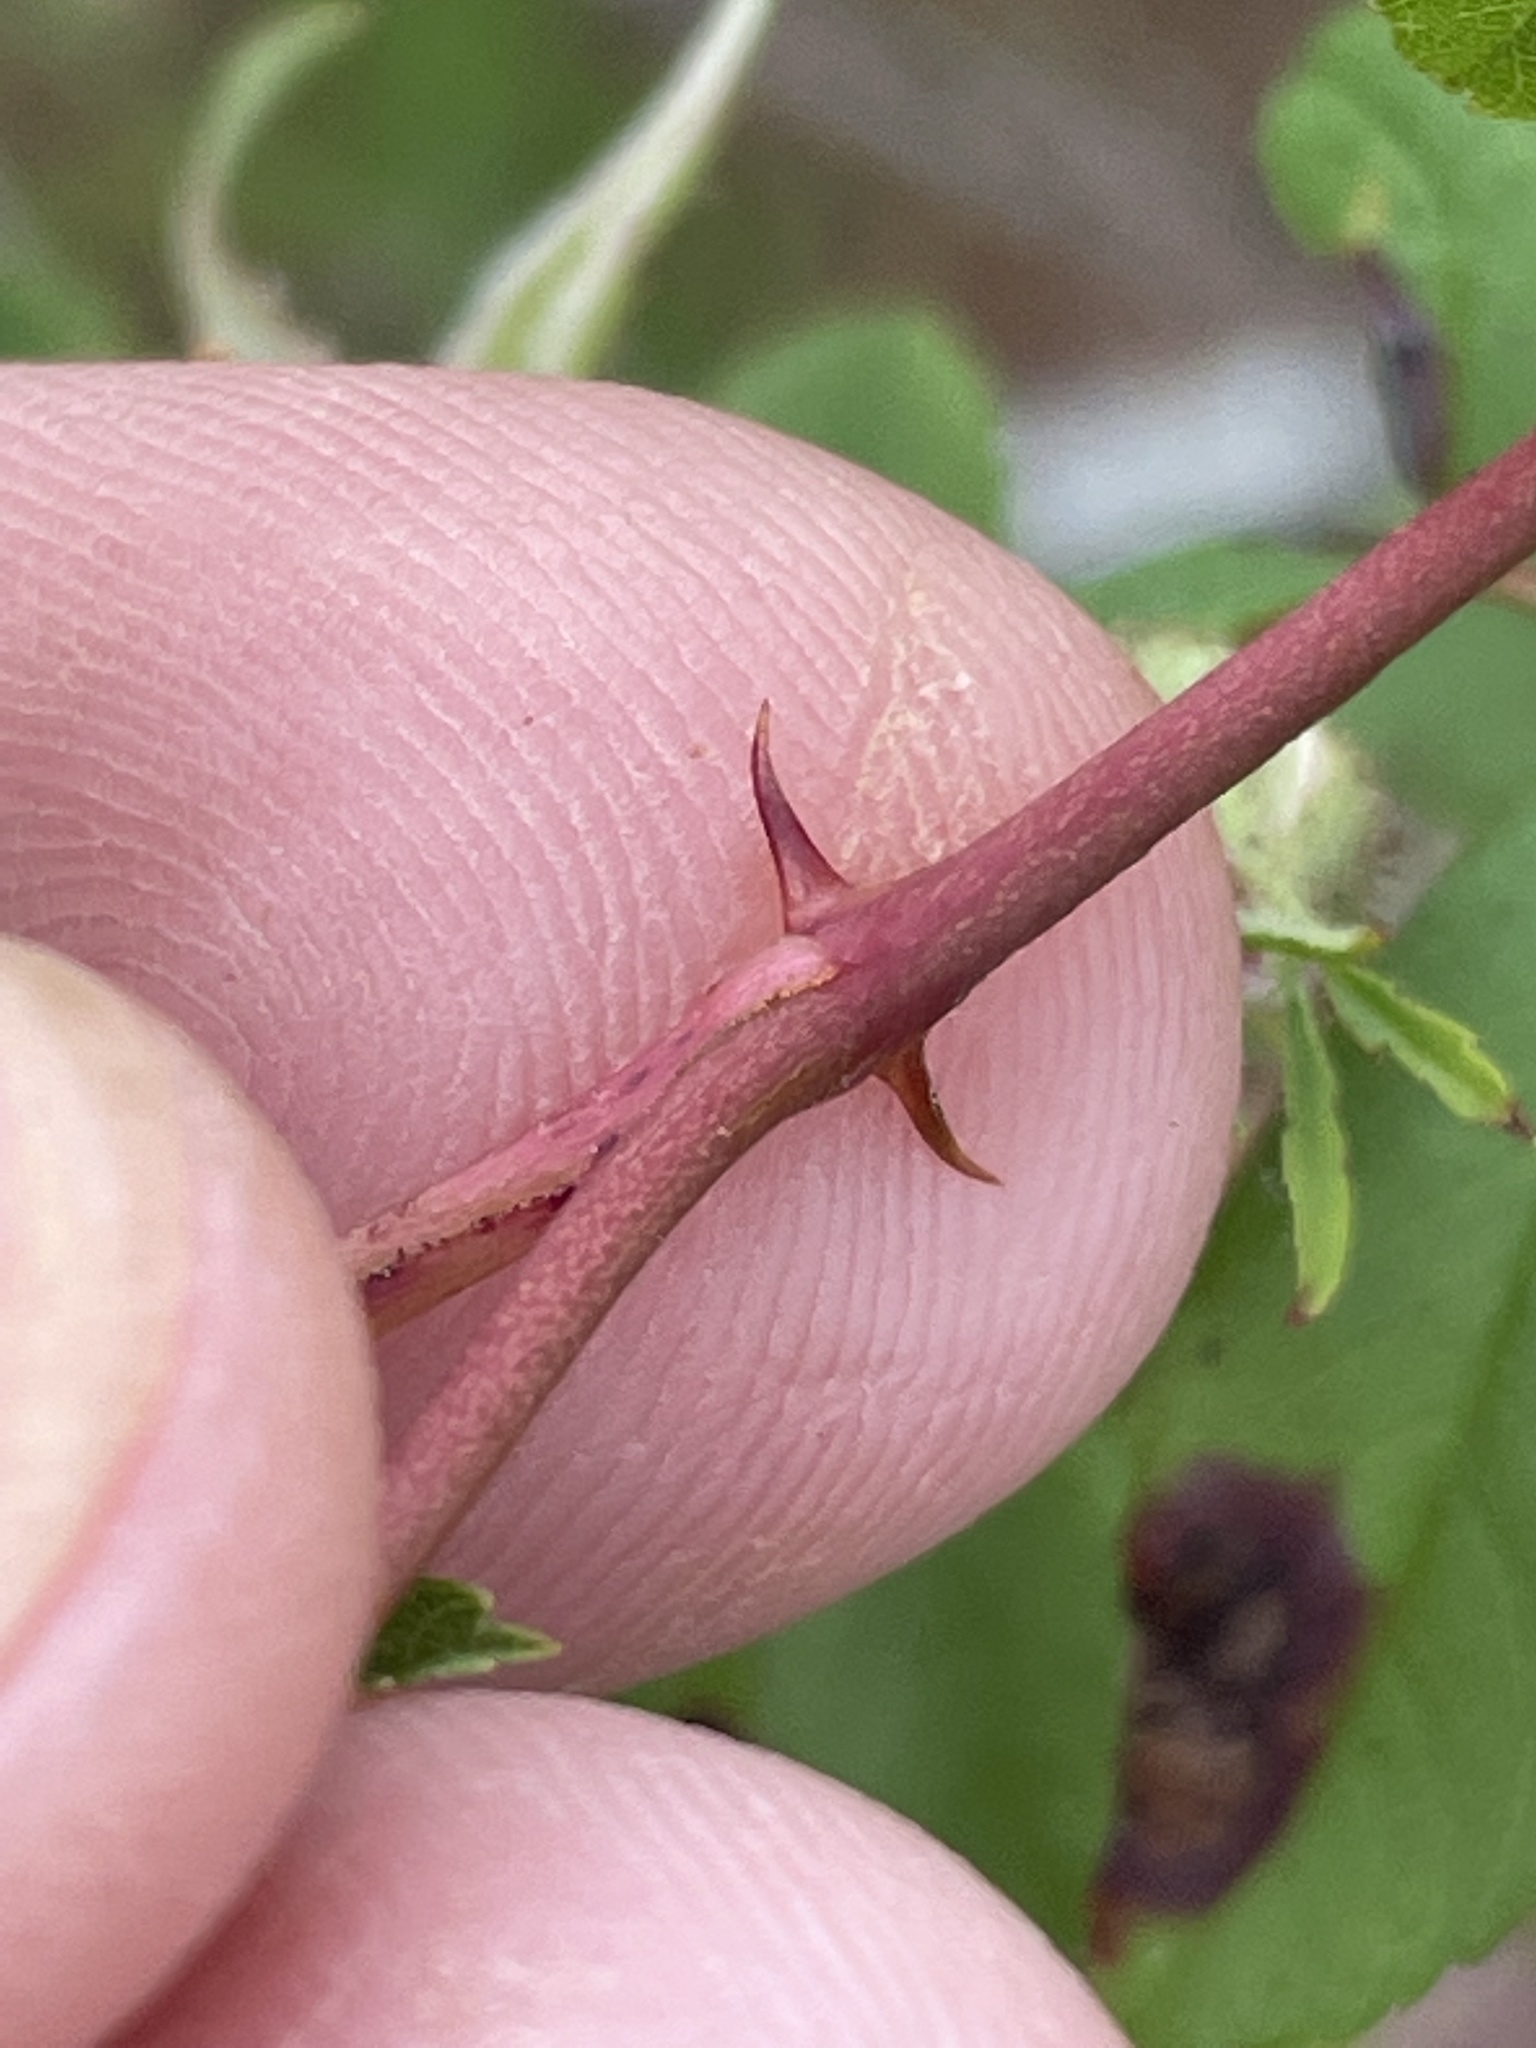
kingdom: Plantae
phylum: Tracheophyta
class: Magnoliopsida
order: Rosales
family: Rosaceae
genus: Rosa
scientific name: Rosa palustris
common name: Swamp rose
